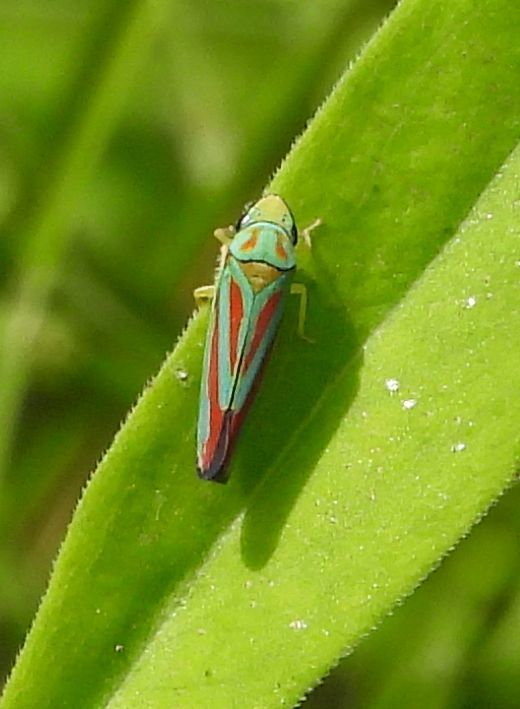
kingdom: Animalia
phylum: Arthropoda
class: Insecta
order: Hemiptera
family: Cicadellidae
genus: Graphocephala
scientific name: Graphocephala coccinea
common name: Candy-striped leafhopper
